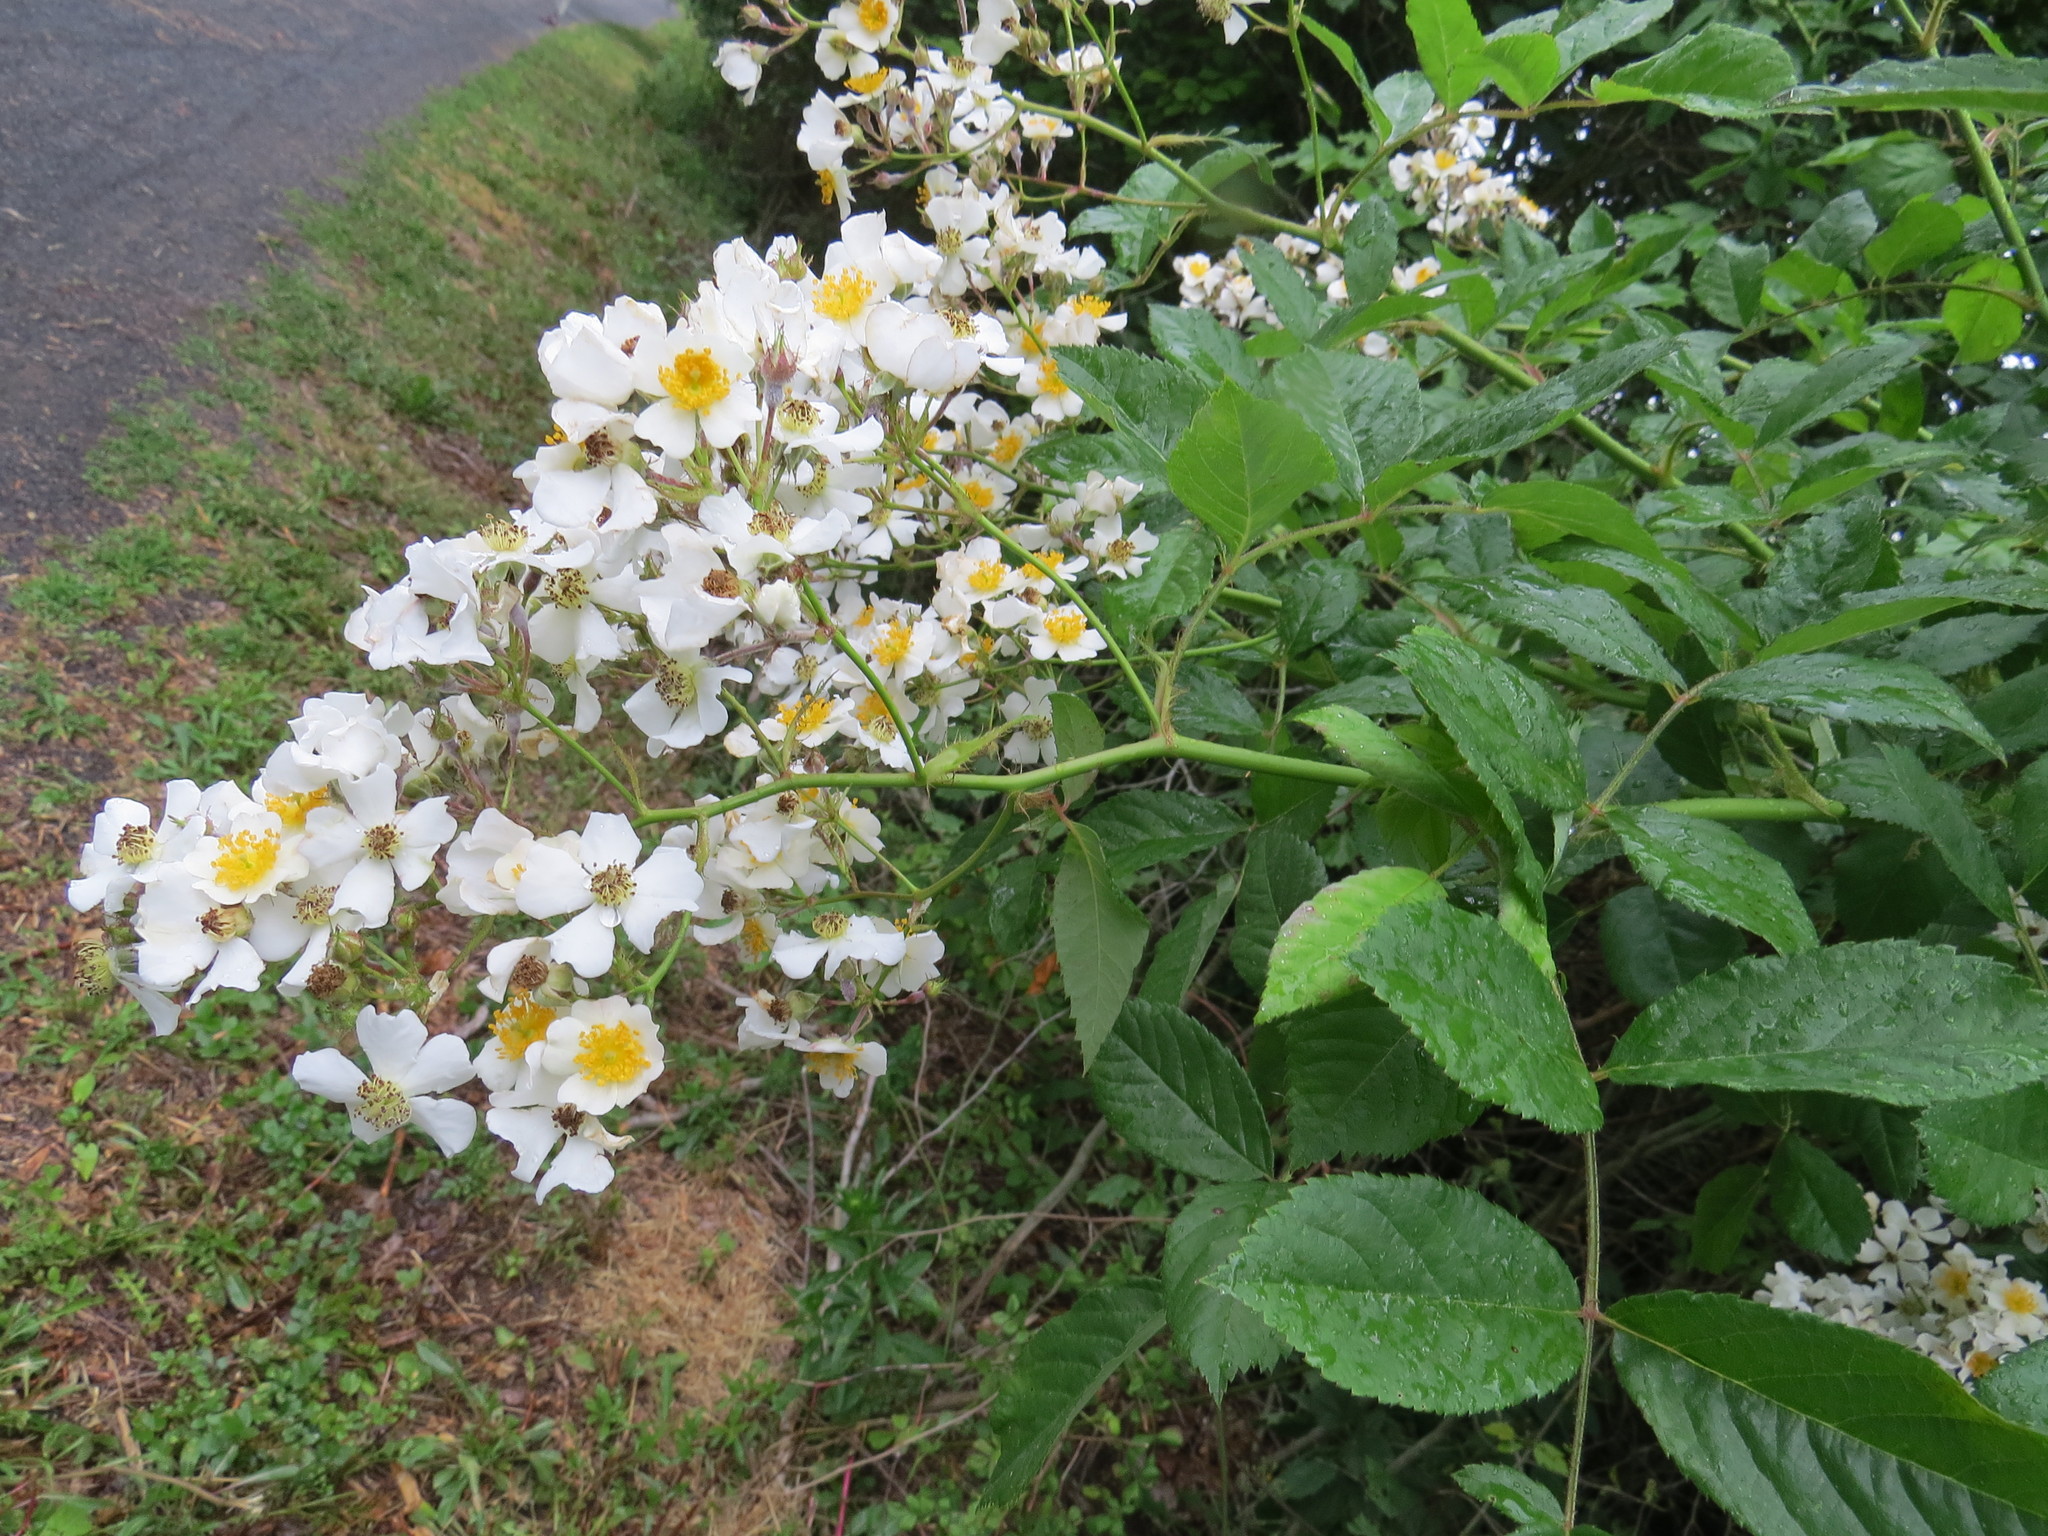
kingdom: Plantae
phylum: Tracheophyta
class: Magnoliopsida
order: Rosales
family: Rosaceae
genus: Rosa
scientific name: Rosa multiflora
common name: Multiflora rose
